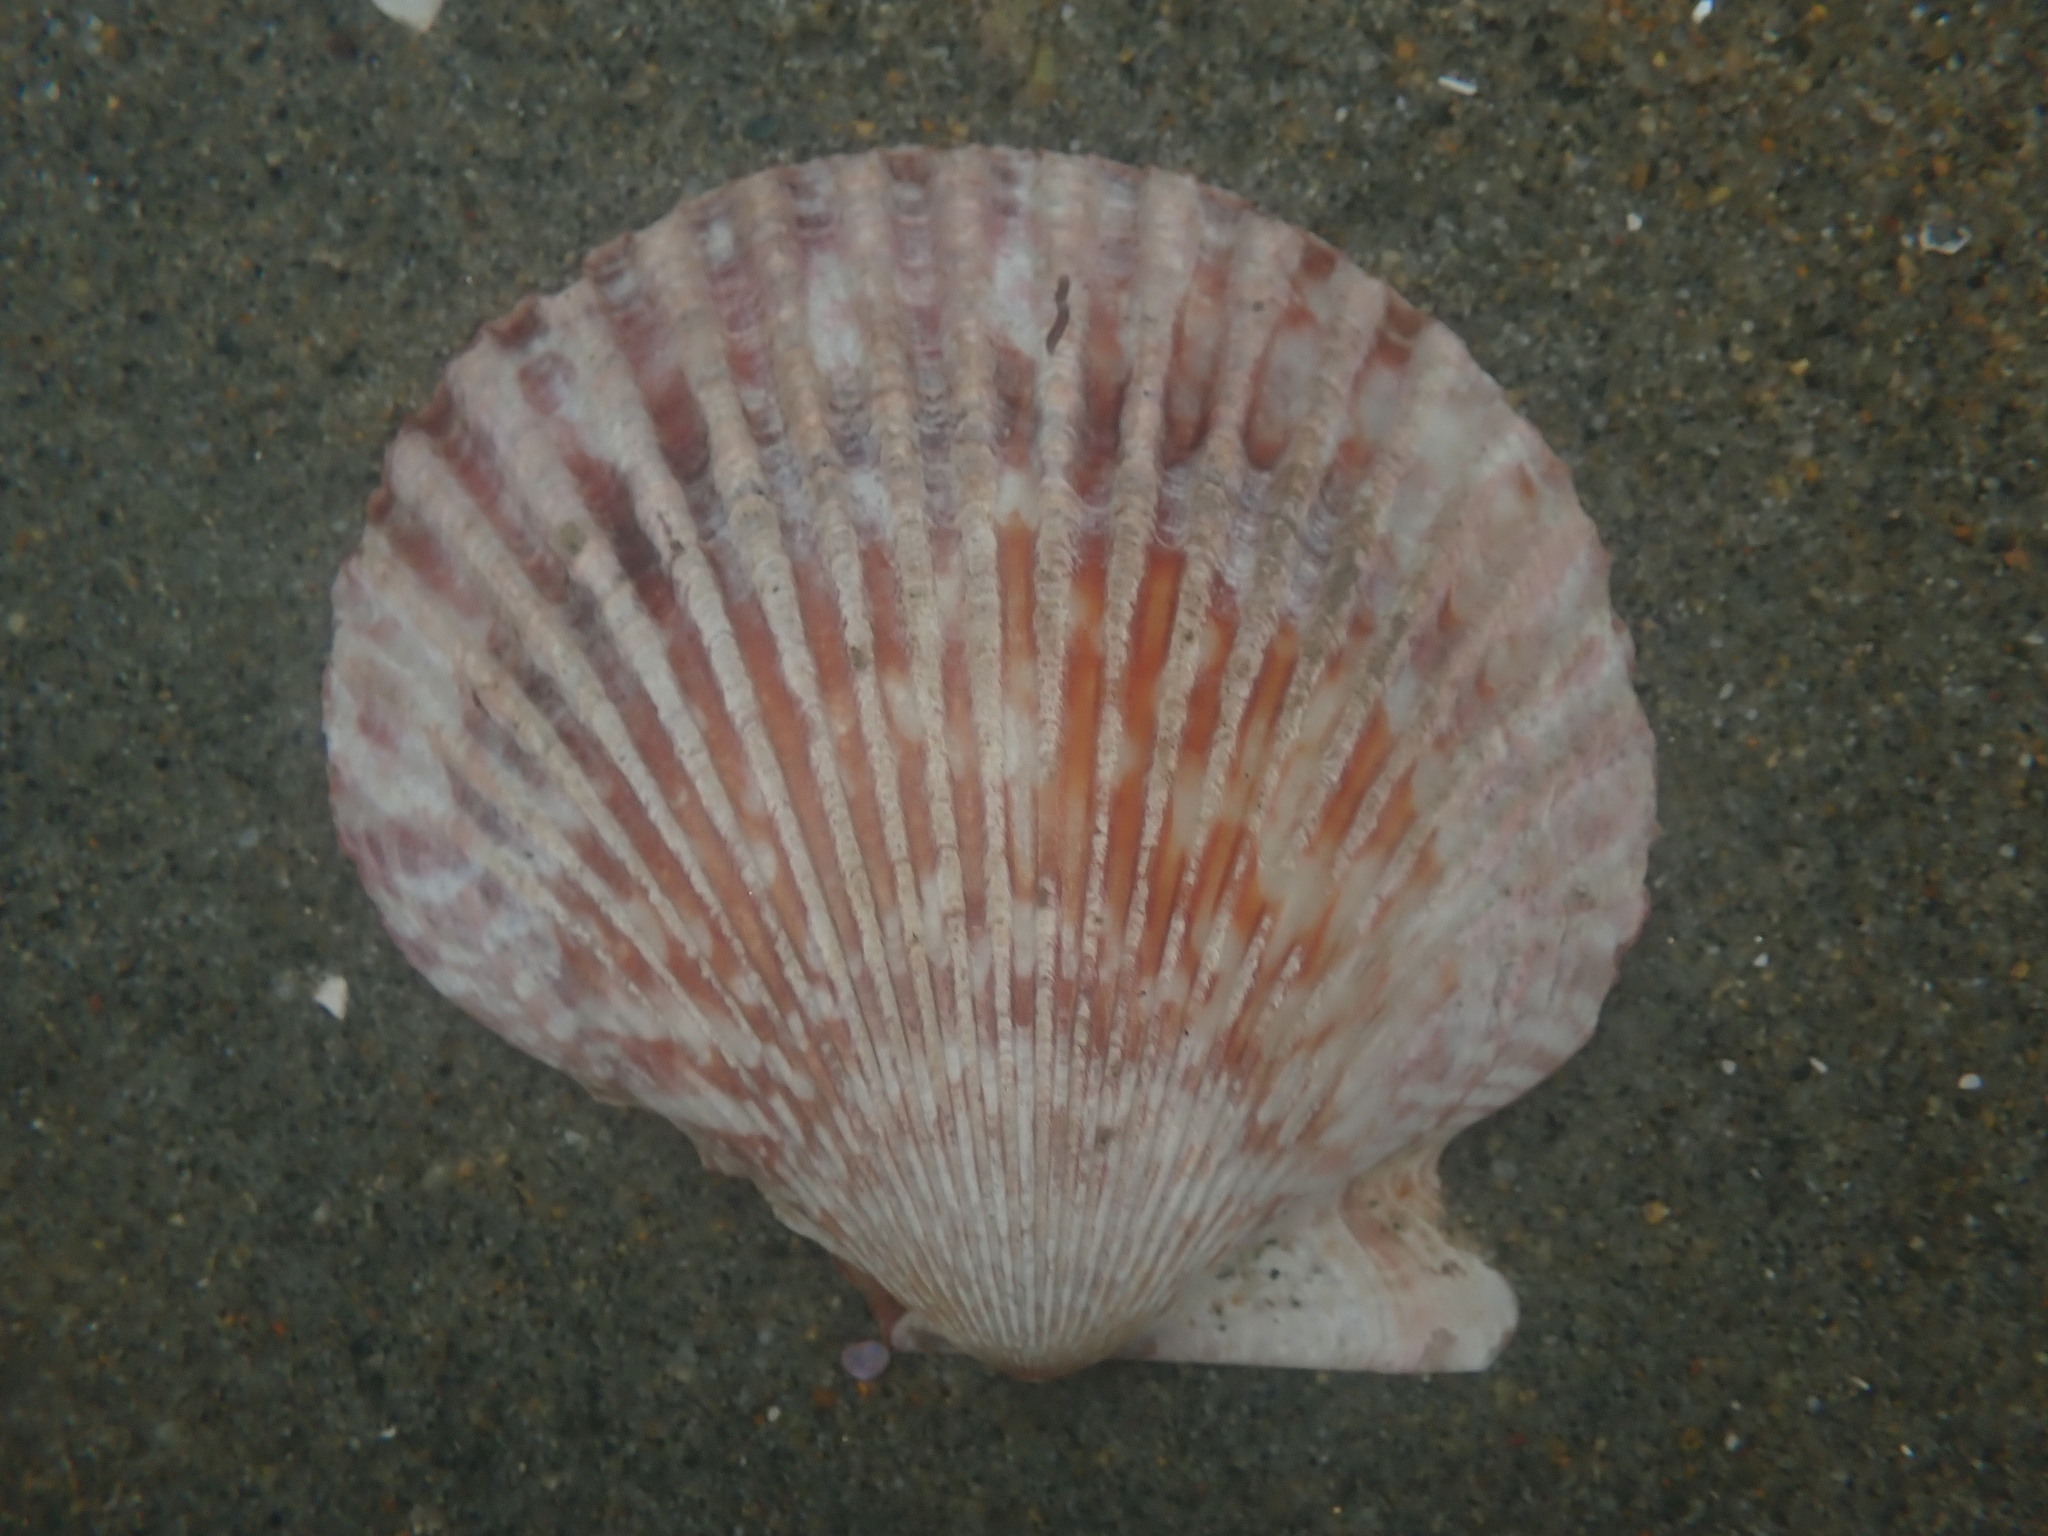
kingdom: Animalia
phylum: Mollusca
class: Bivalvia
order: Pectinida
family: Pectinidae
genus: Argopecten
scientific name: Argopecten ventricosus
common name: Catarina scallop
